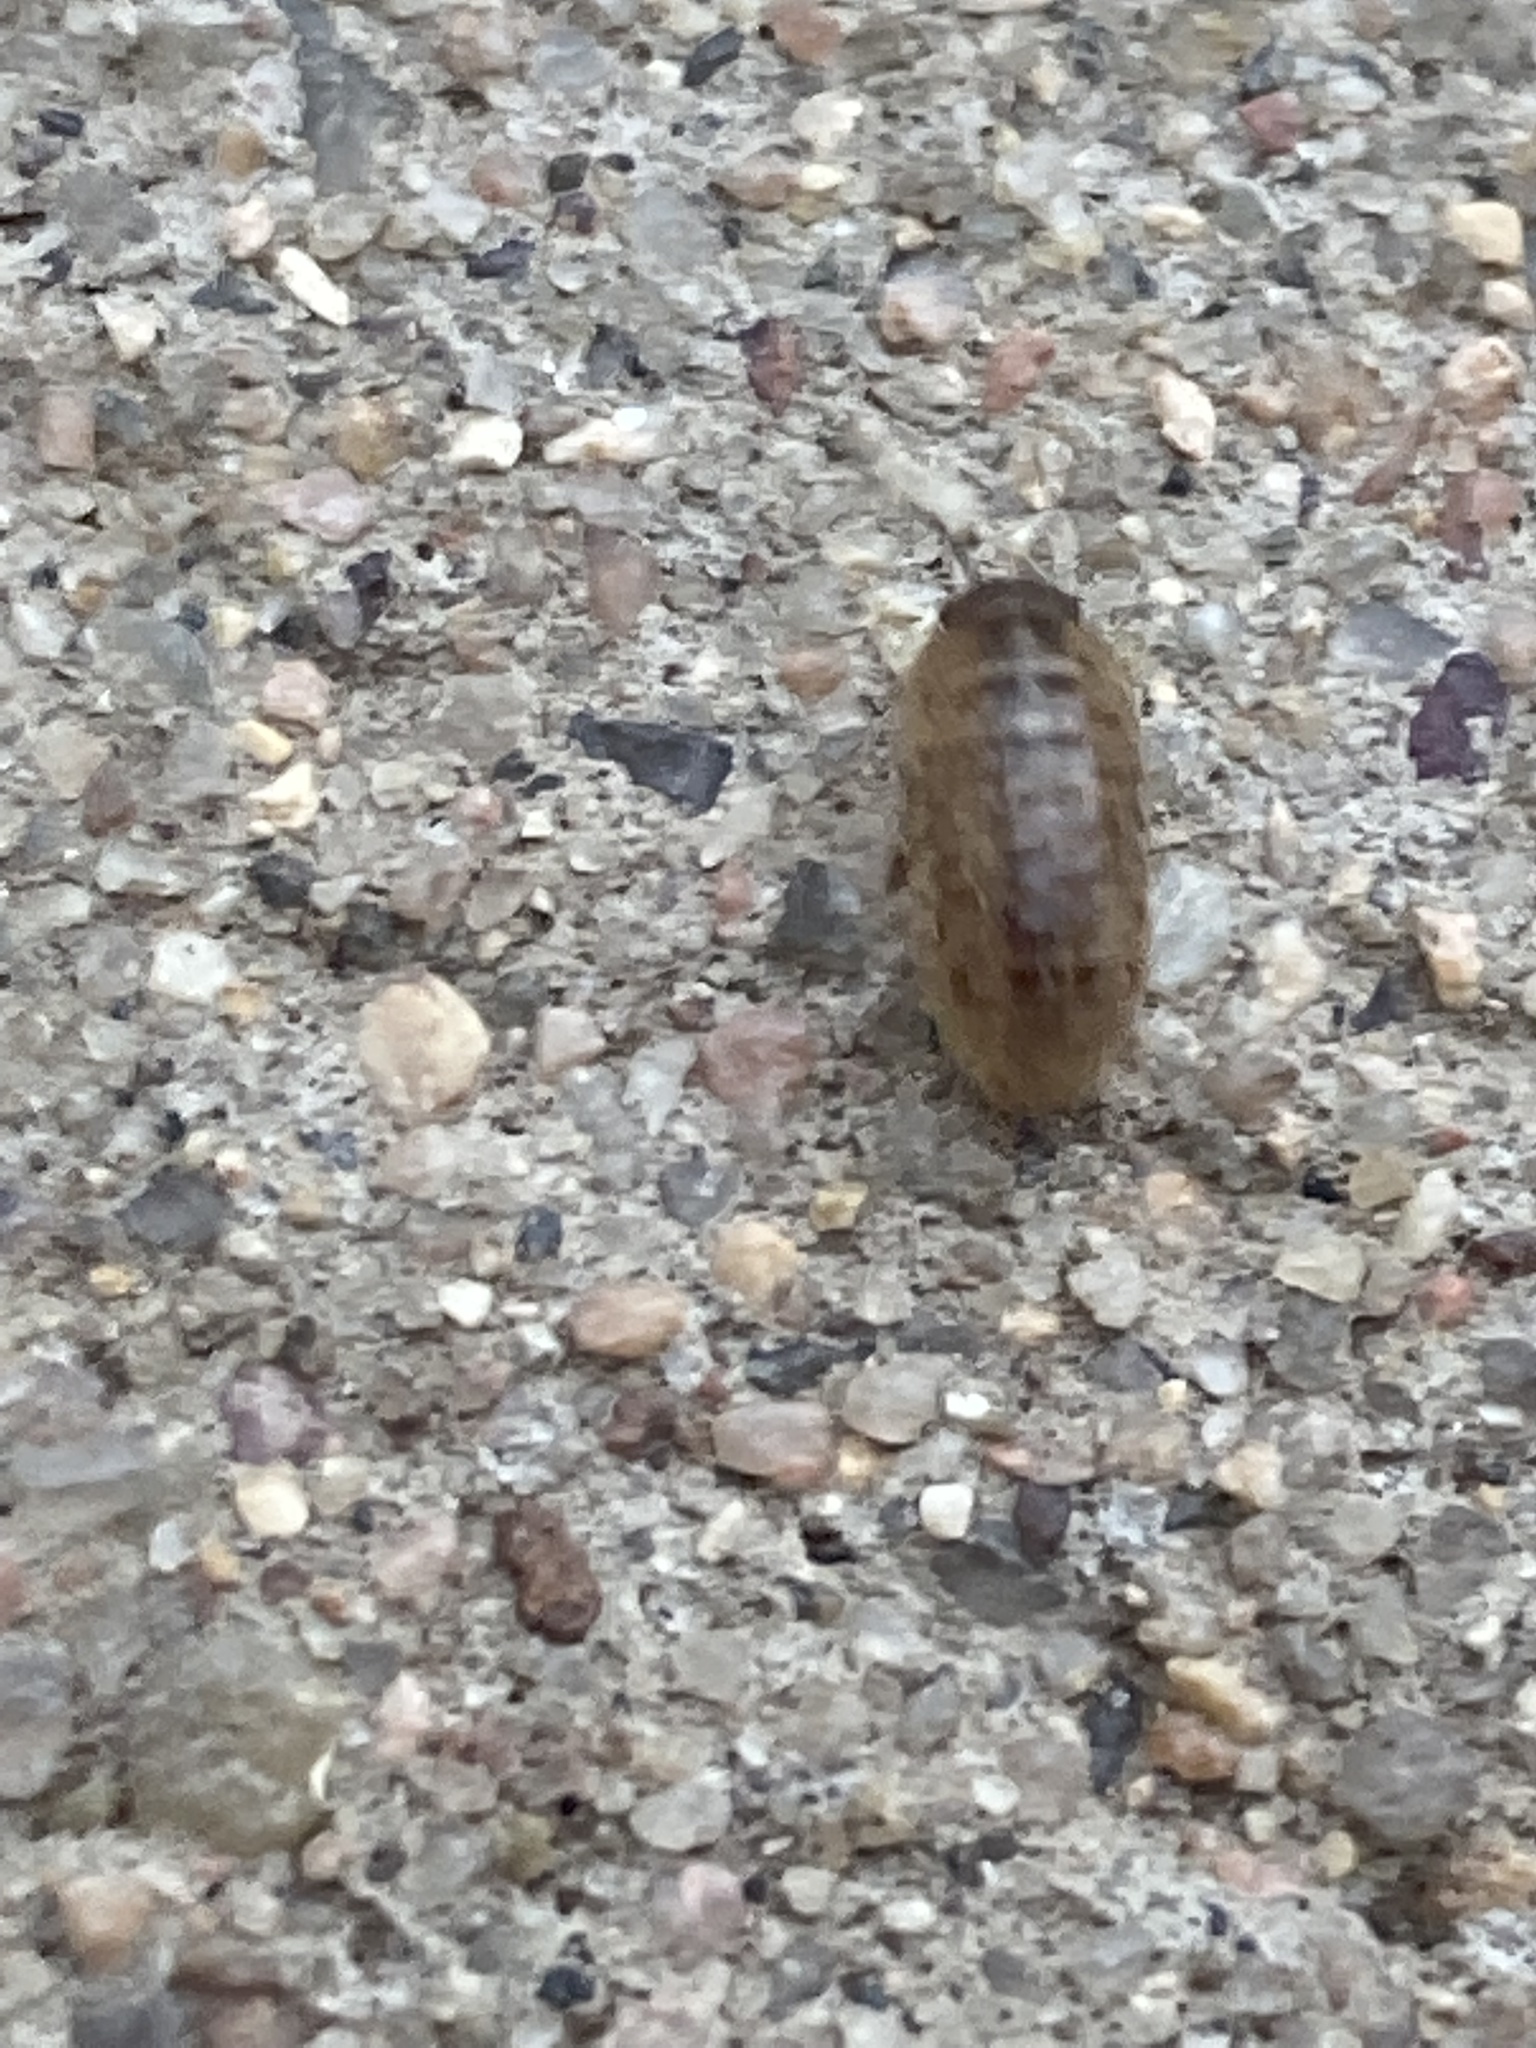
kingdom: Animalia
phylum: Arthropoda
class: Malacostraca
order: Isopoda
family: Armadillidiidae
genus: Armadillidium
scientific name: Armadillidium vulgare
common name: Common pill woodlouse
